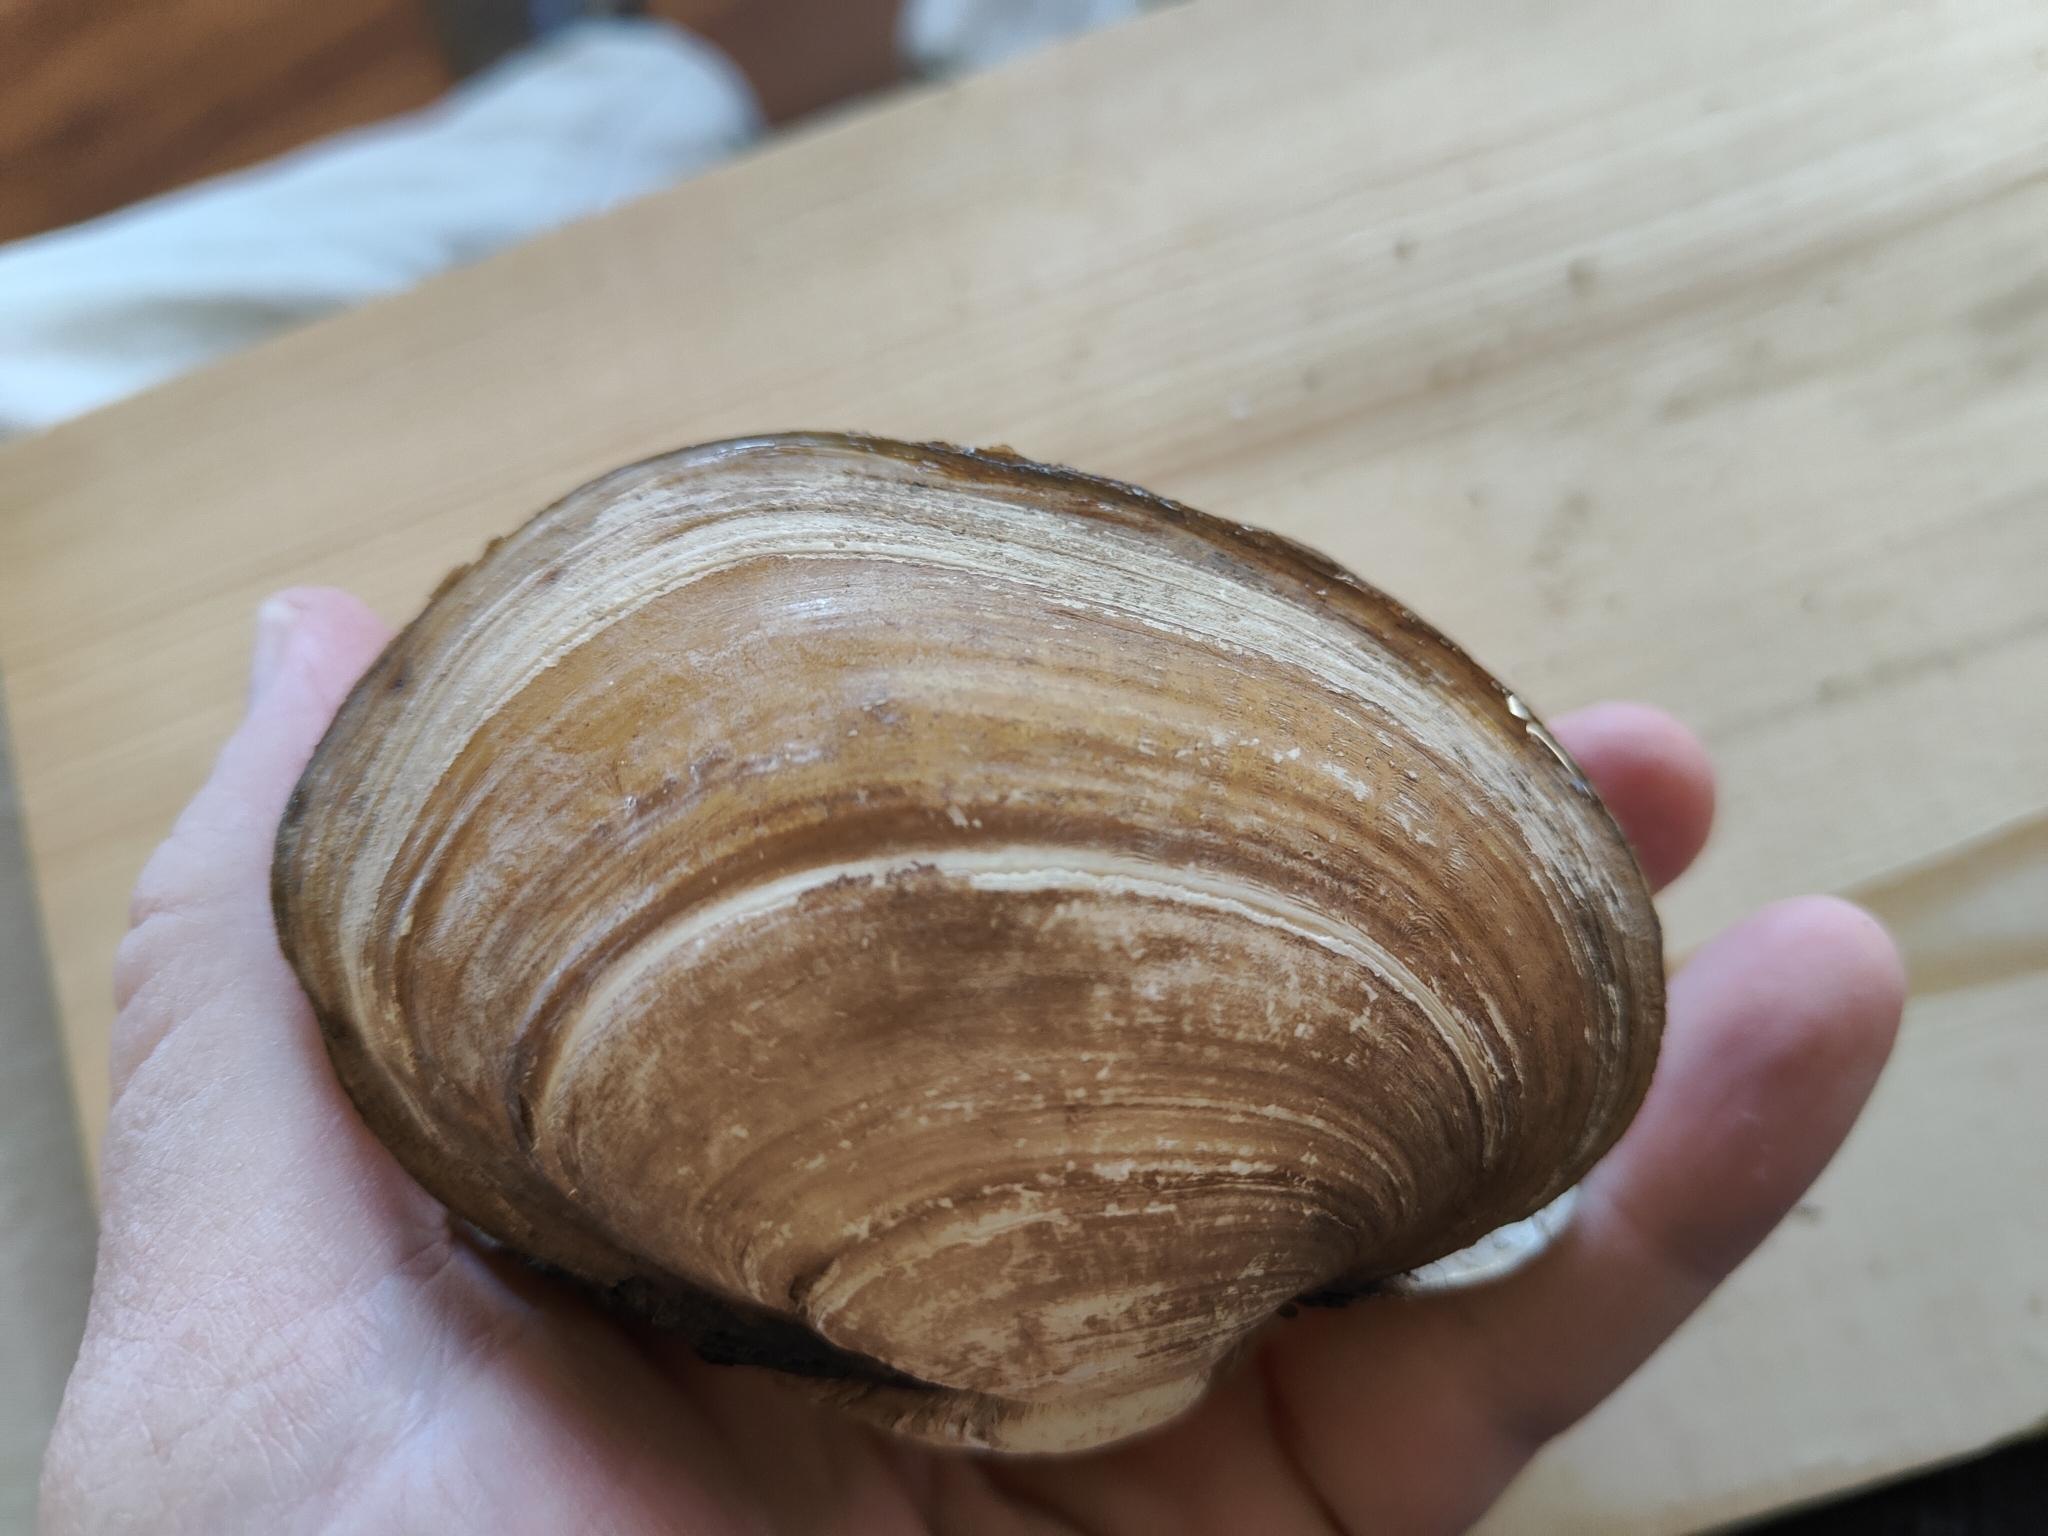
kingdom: Animalia
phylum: Mollusca
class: Bivalvia
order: Unionida
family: Unionidae
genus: Lampsilis
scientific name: Lampsilis cardium
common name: Plain pocketbook
